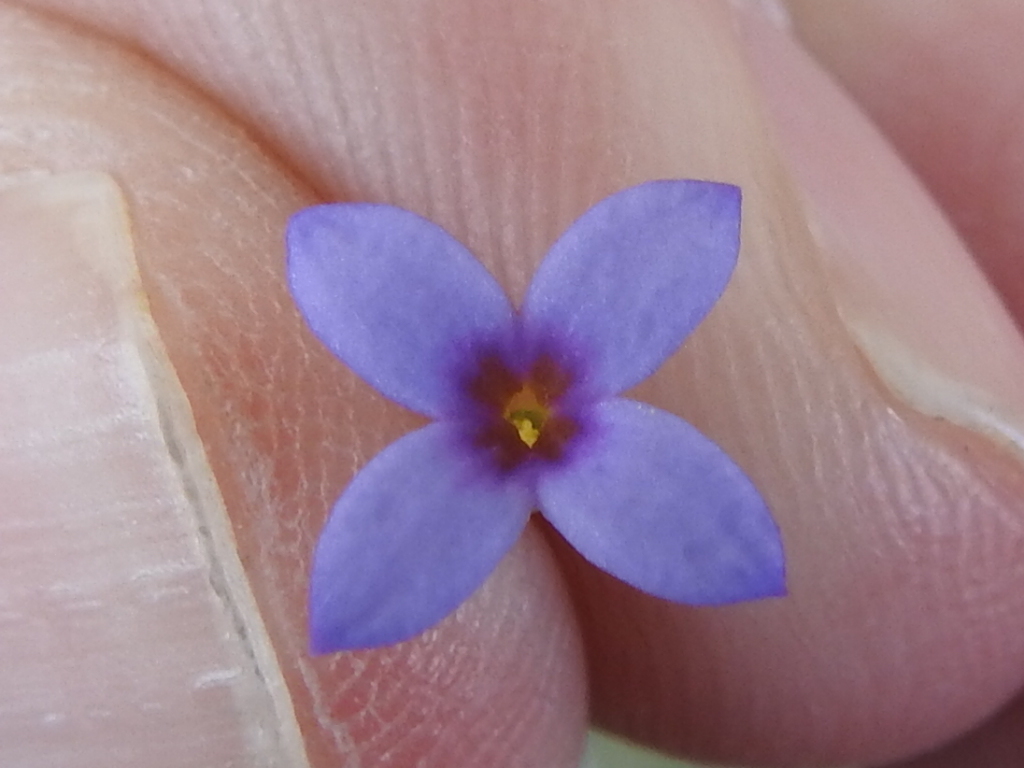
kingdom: Plantae
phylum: Tracheophyta
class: Magnoliopsida
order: Gentianales
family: Rubiaceae
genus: Houstonia
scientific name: Houstonia pusilla
